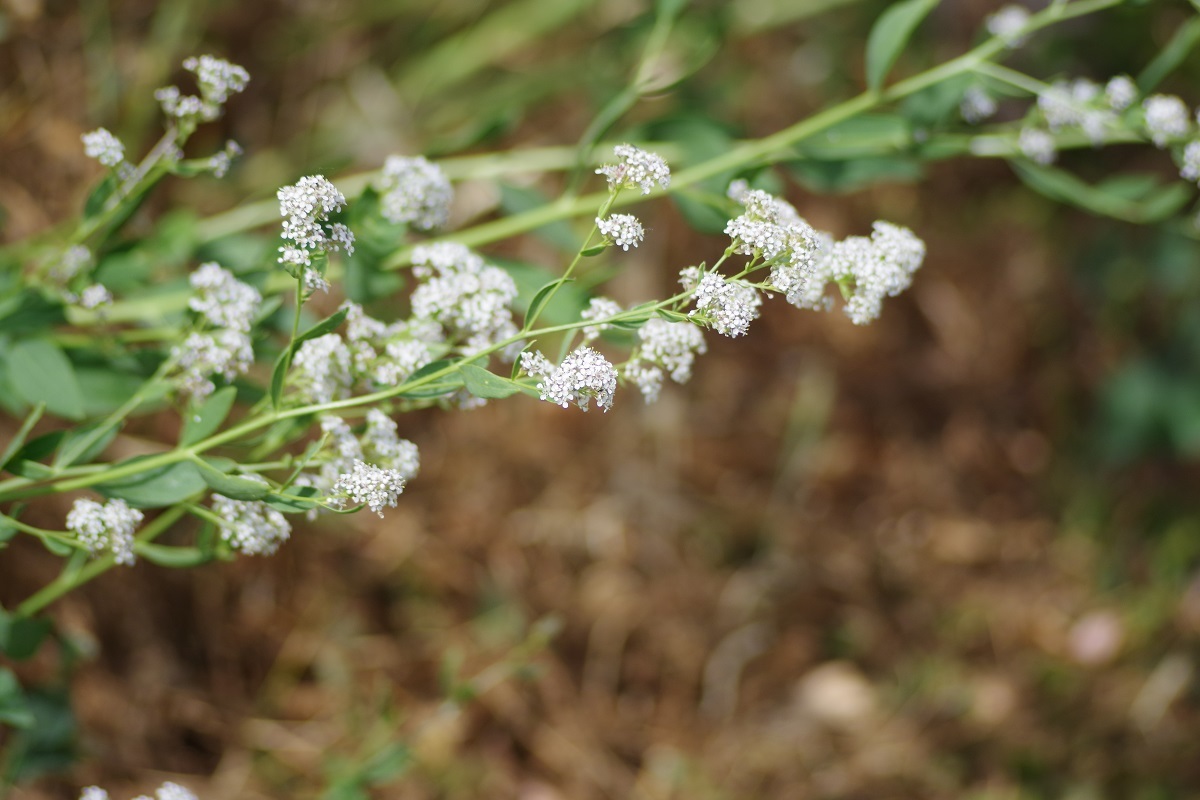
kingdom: Plantae
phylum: Tracheophyta
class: Magnoliopsida
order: Brassicales
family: Brassicaceae
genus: Lepidium
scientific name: Lepidium latifolium
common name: Dittander
